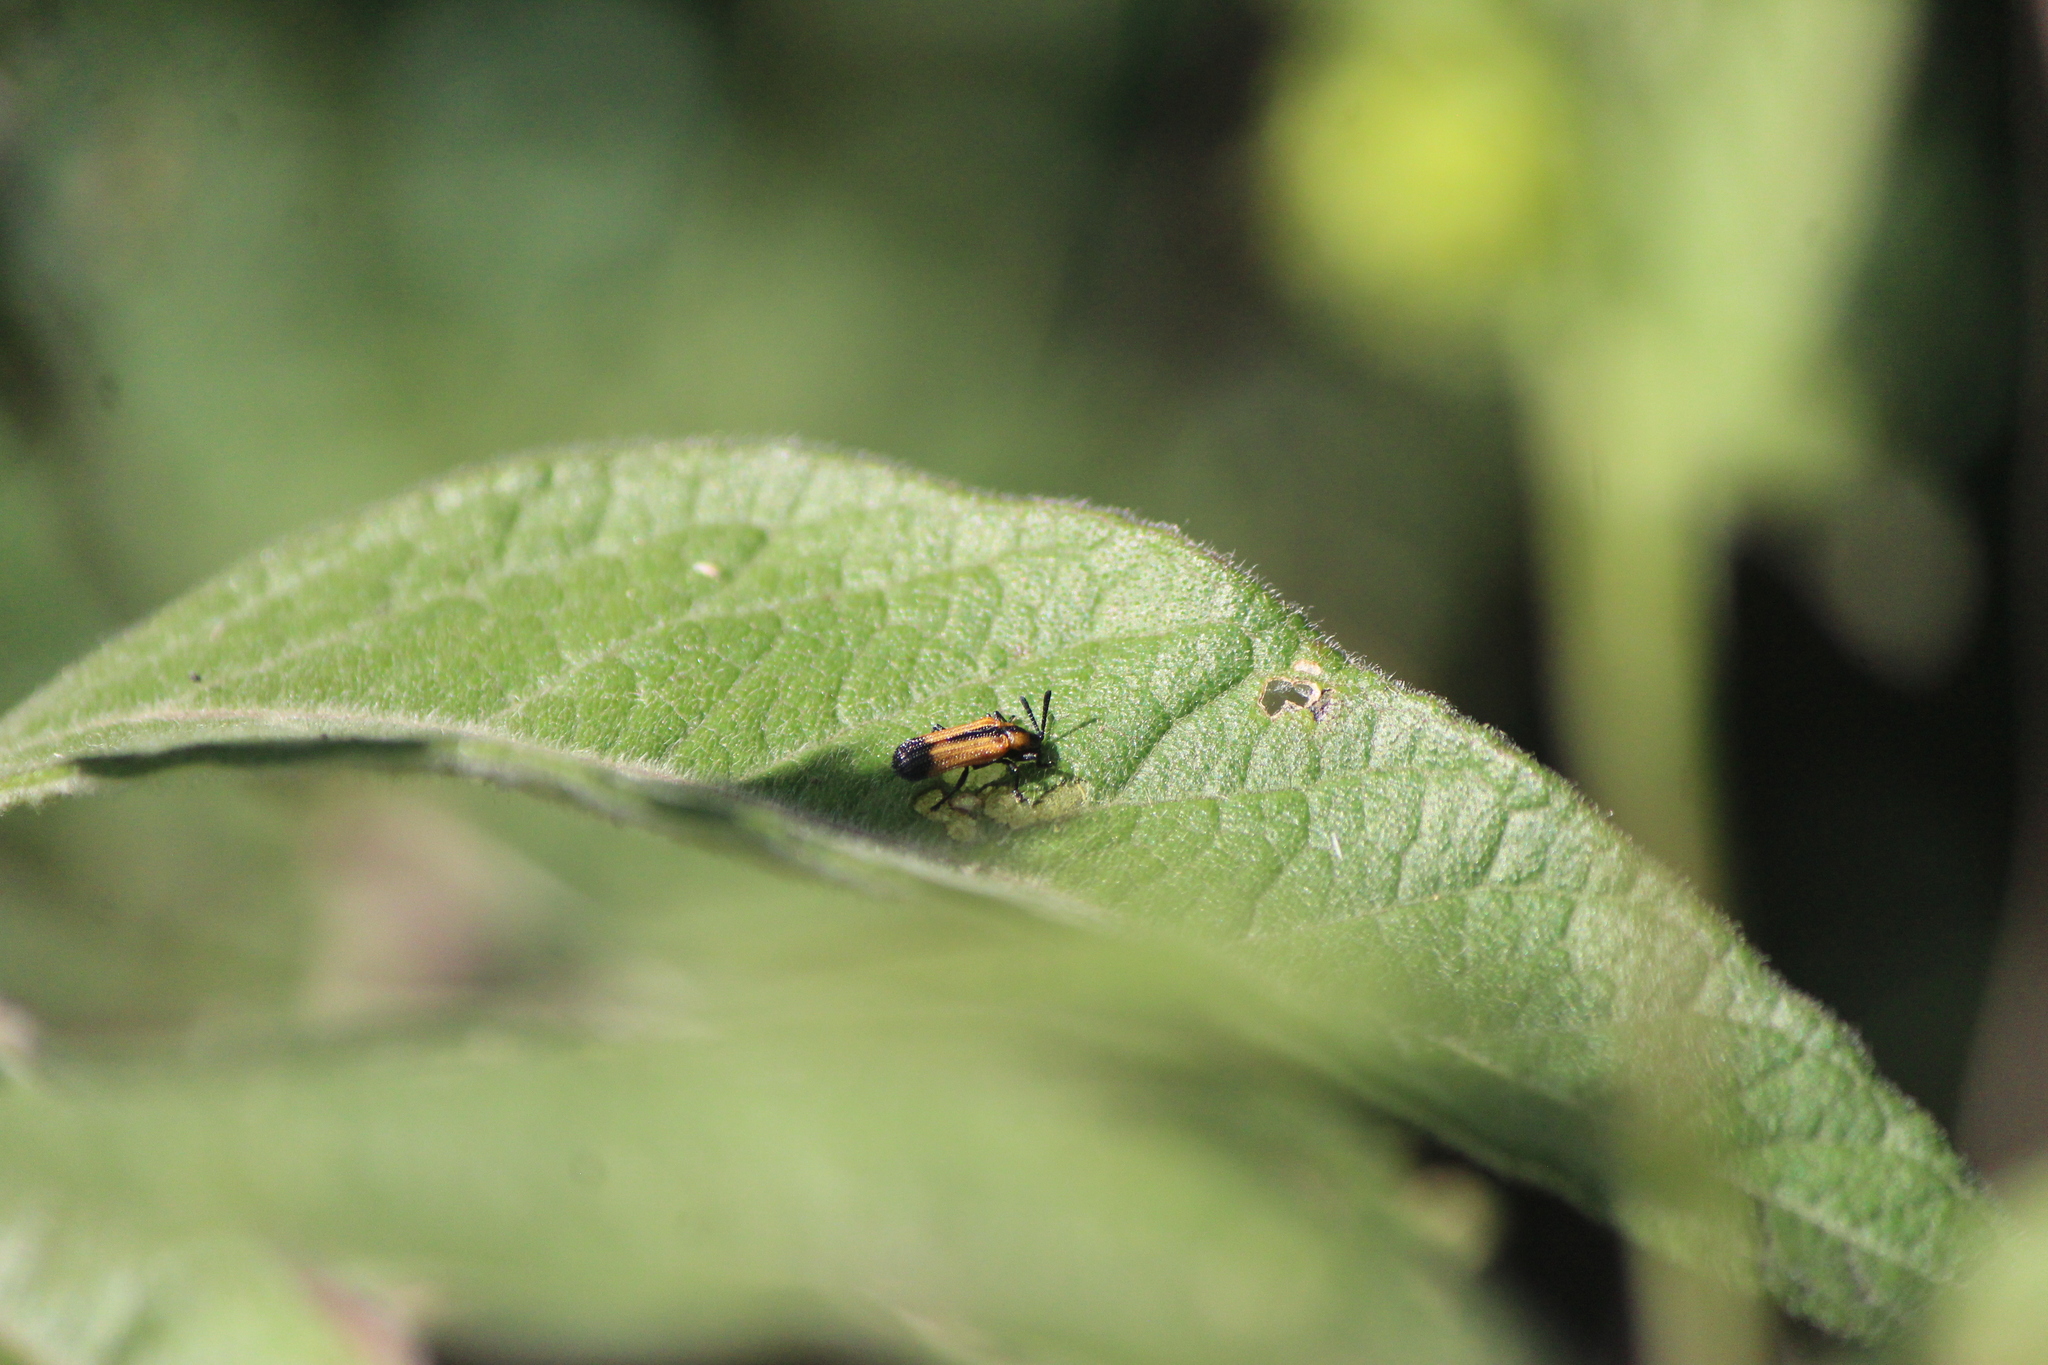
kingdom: Animalia
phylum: Arthropoda
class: Insecta
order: Coleoptera
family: Chrysomelidae
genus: Pentispa
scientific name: Pentispa melanura
